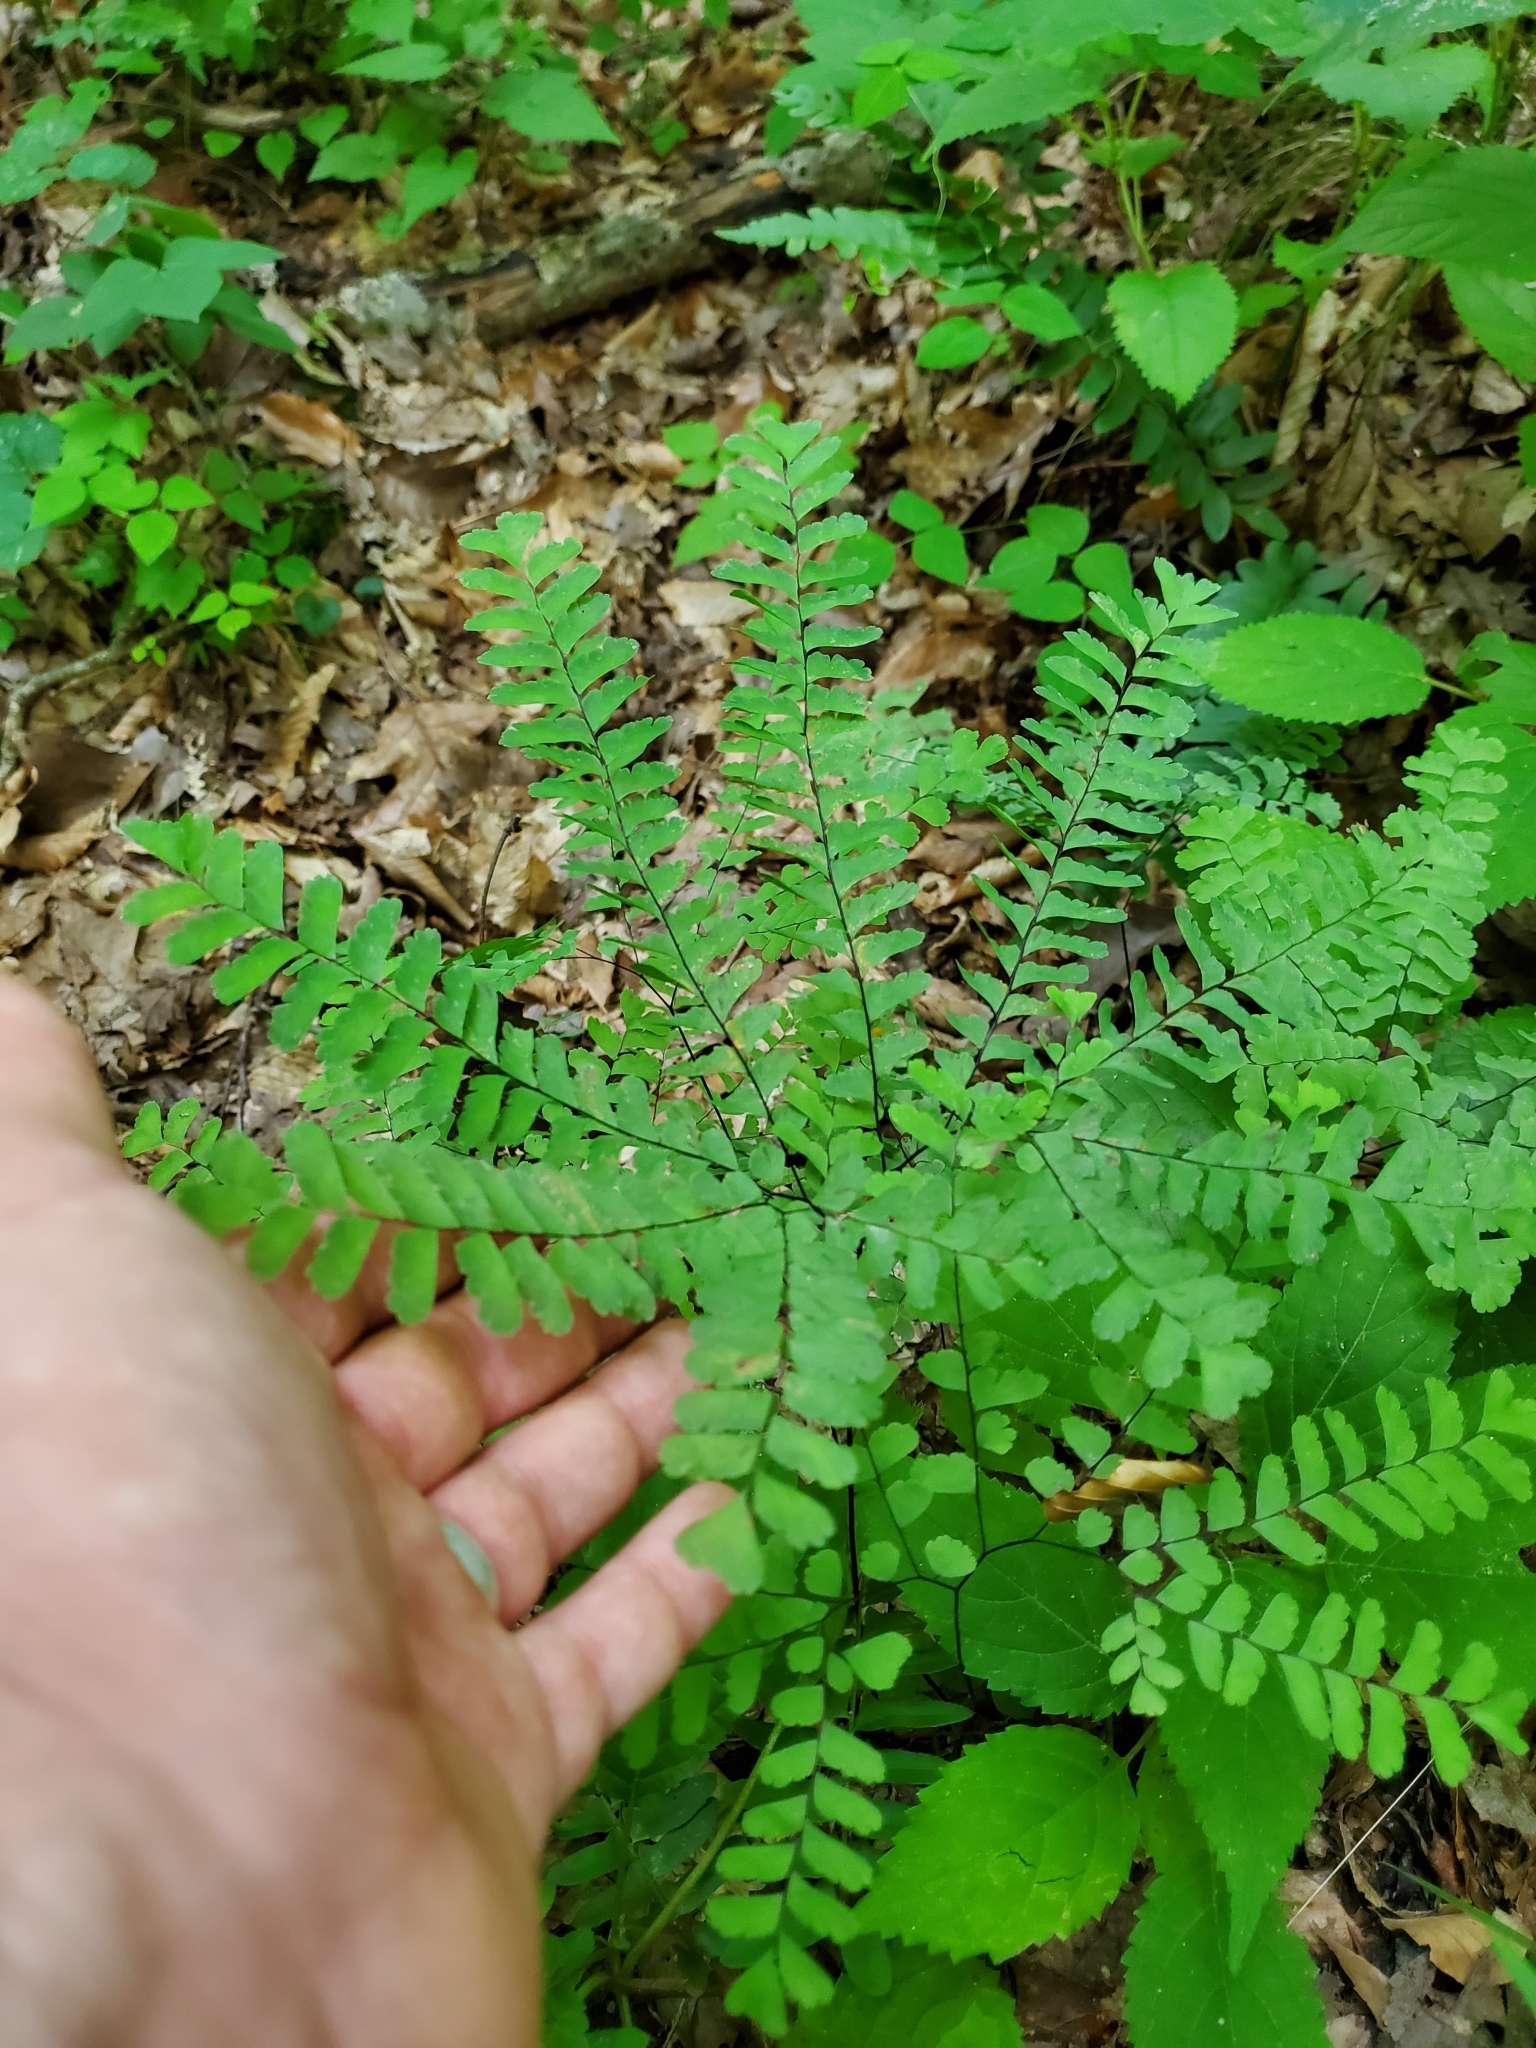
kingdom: Plantae
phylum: Tracheophyta
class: Polypodiopsida
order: Polypodiales
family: Pteridaceae
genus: Adiantum
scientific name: Adiantum pedatum
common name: Five-finger fern
